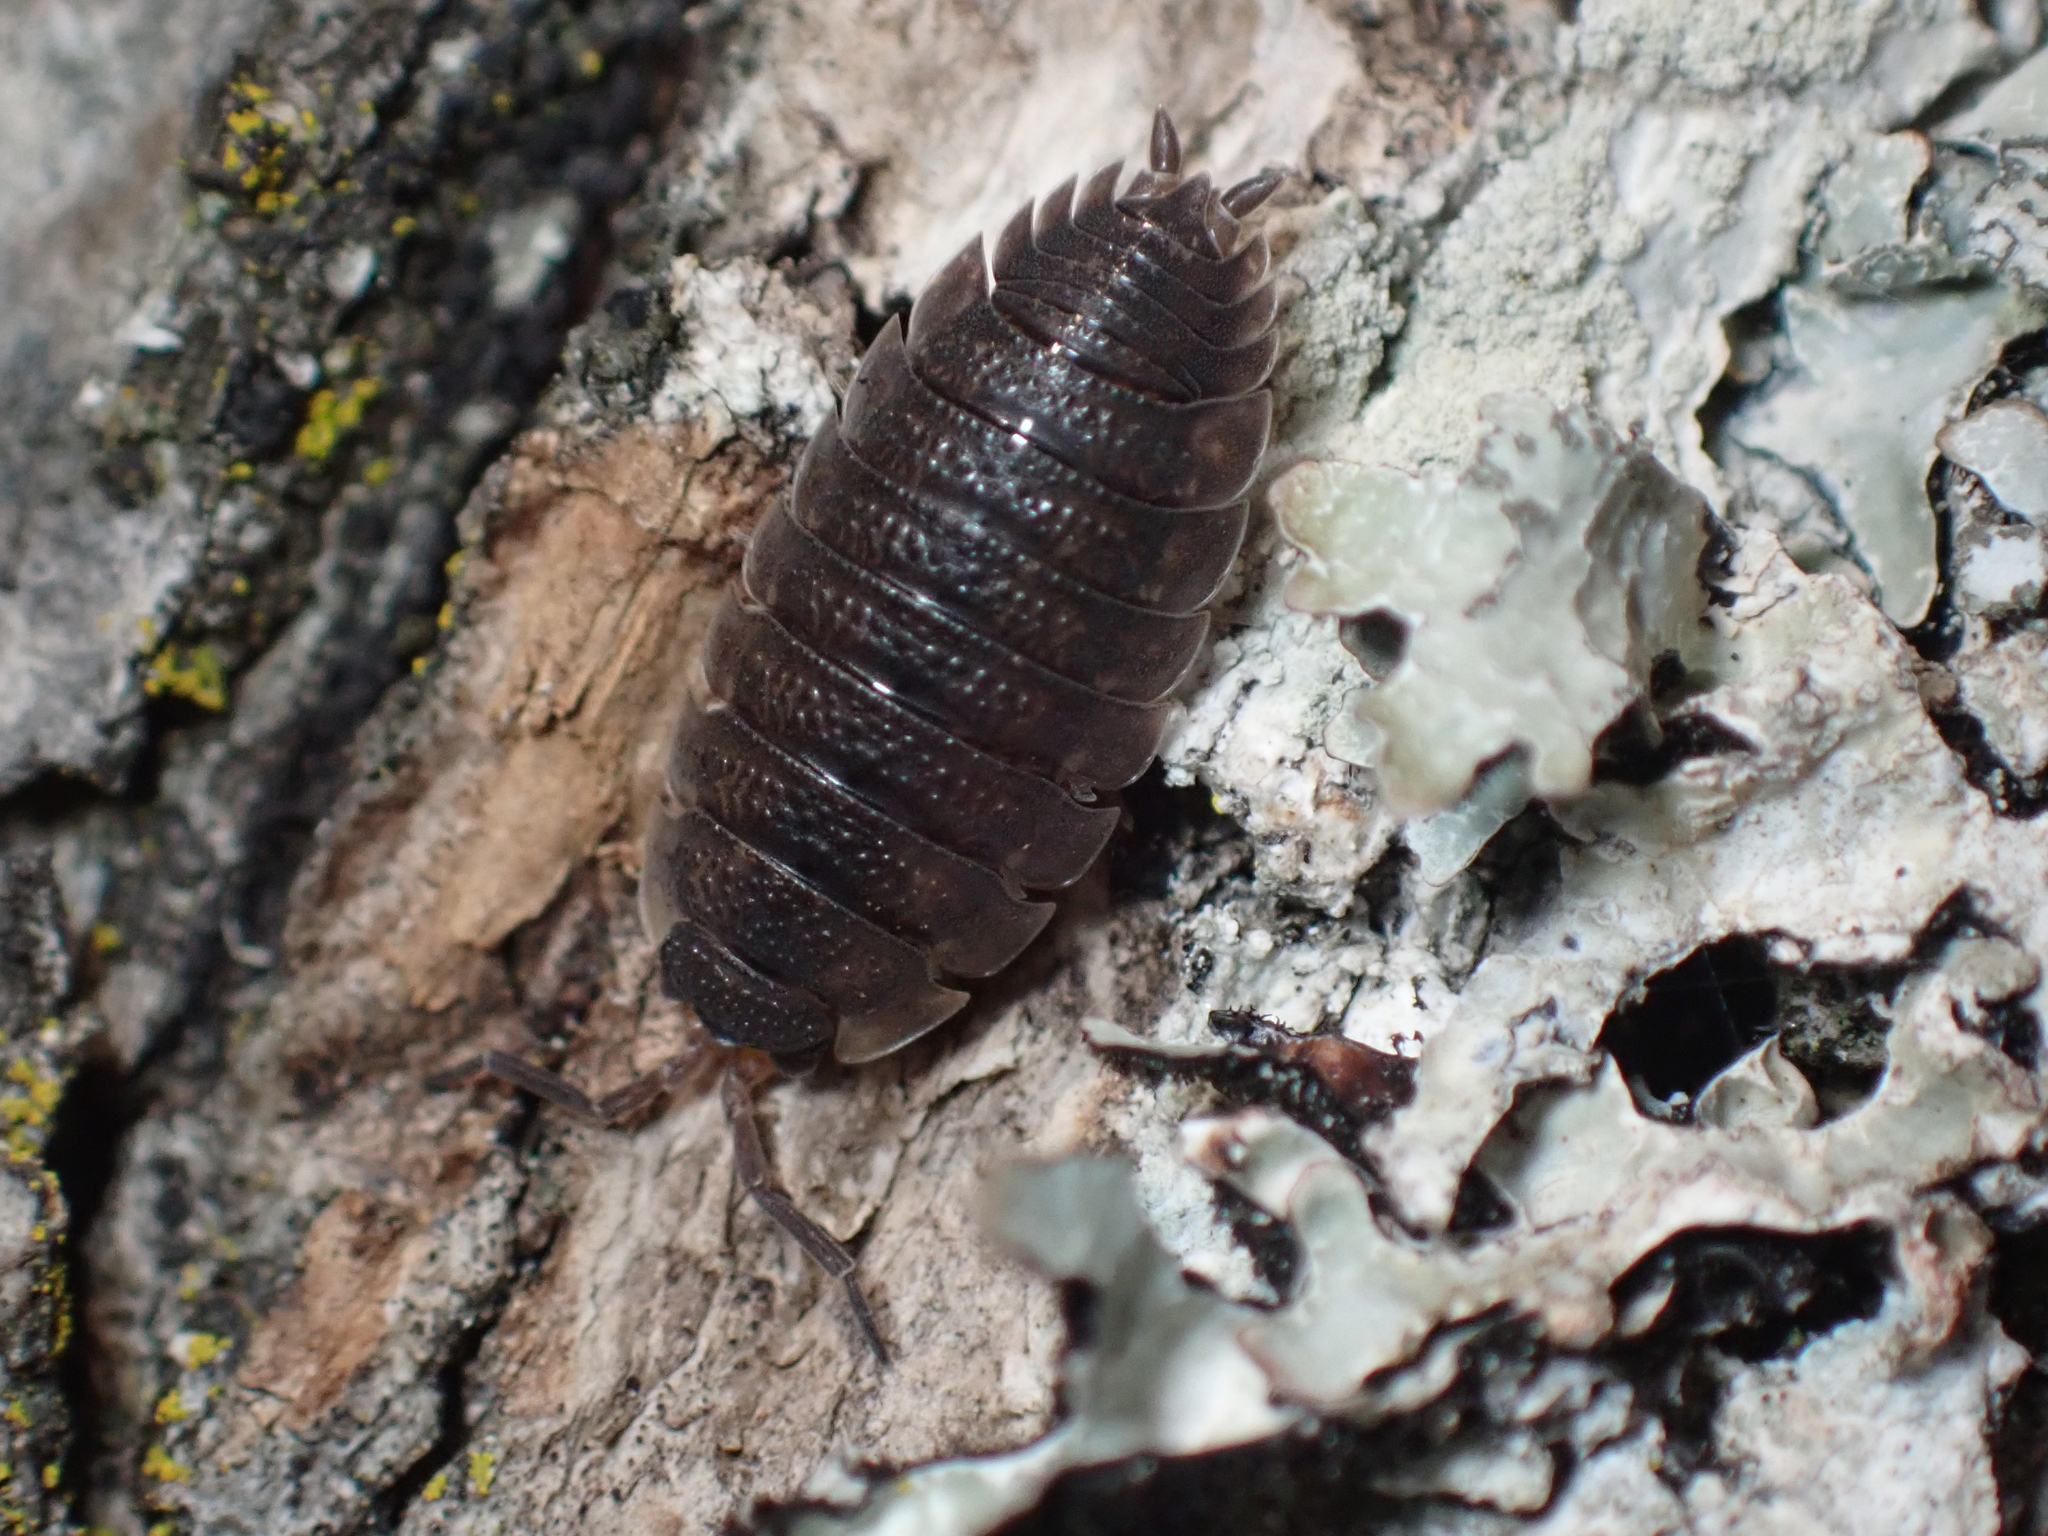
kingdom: Animalia
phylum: Arthropoda
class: Malacostraca
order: Isopoda
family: Porcellionidae
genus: Porcellio
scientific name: Porcellio scaber
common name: Common rough woodlouse
